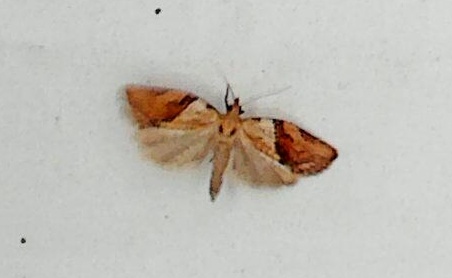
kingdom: Animalia
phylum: Arthropoda
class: Insecta
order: Lepidoptera
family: Tortricidae
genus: Epiphyas
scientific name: Epiphyas postvittana
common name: Light brown apple moth
